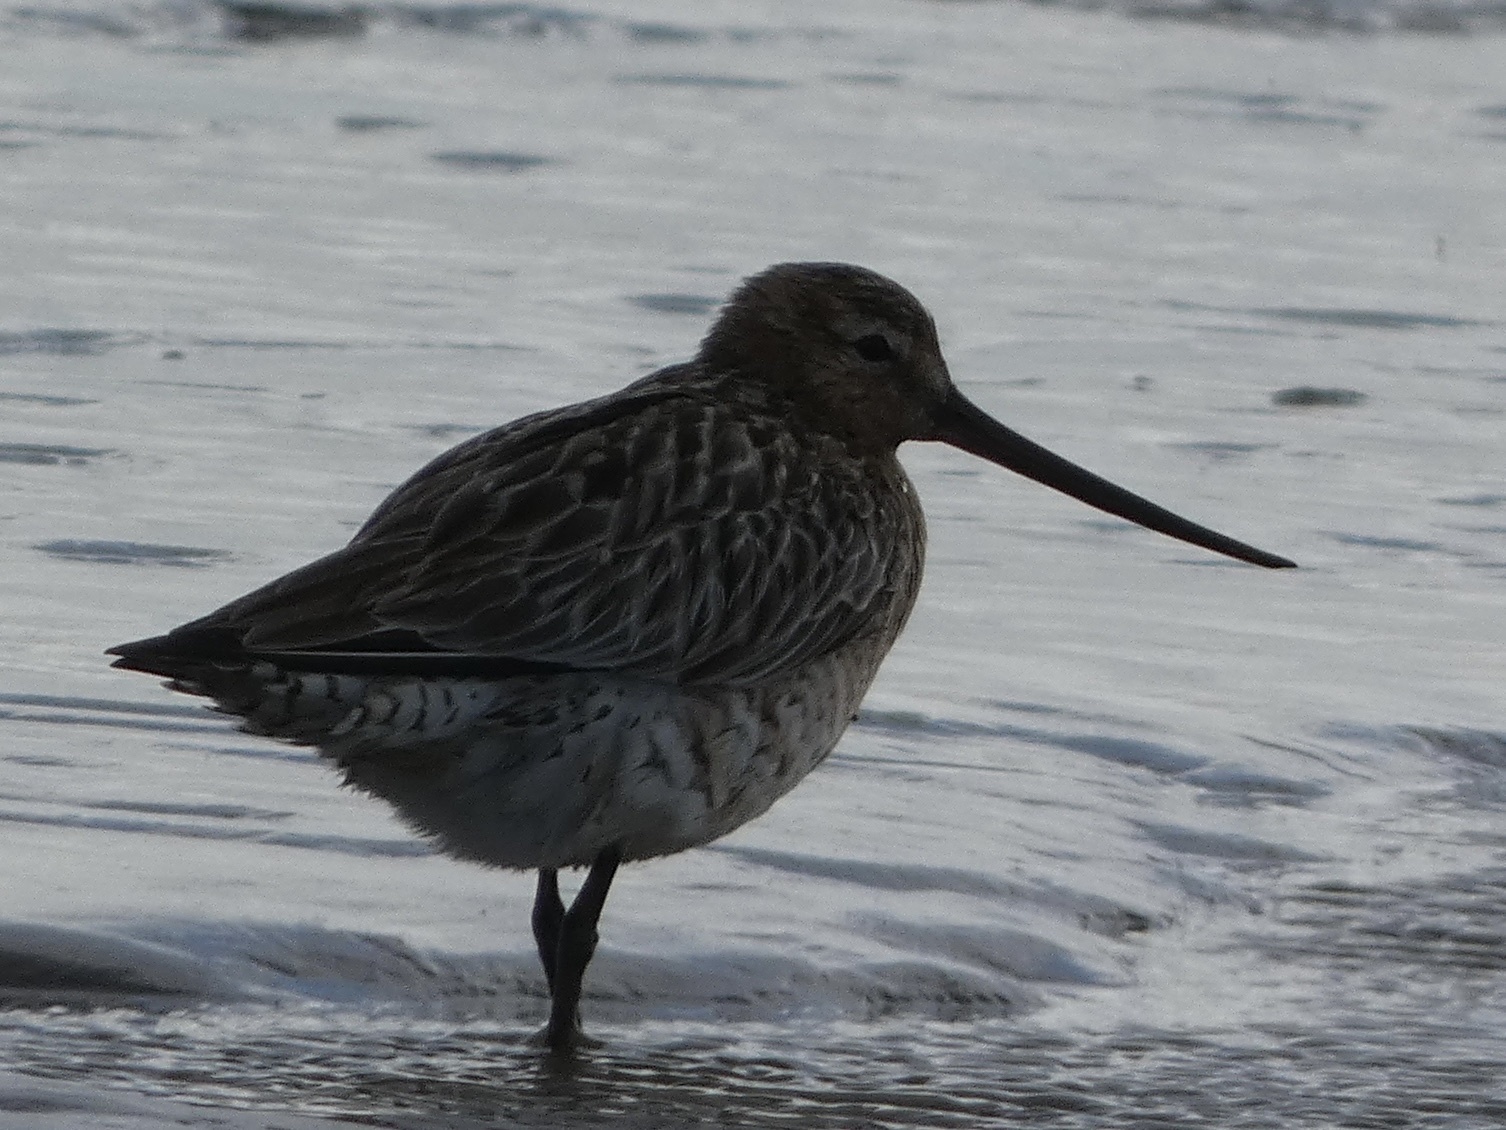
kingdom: Animalia
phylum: Chordata
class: Aves
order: Charadriiformes
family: Scolopacidae
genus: Limosa
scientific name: Limosa lapponica
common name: Bar-tailed godwit
